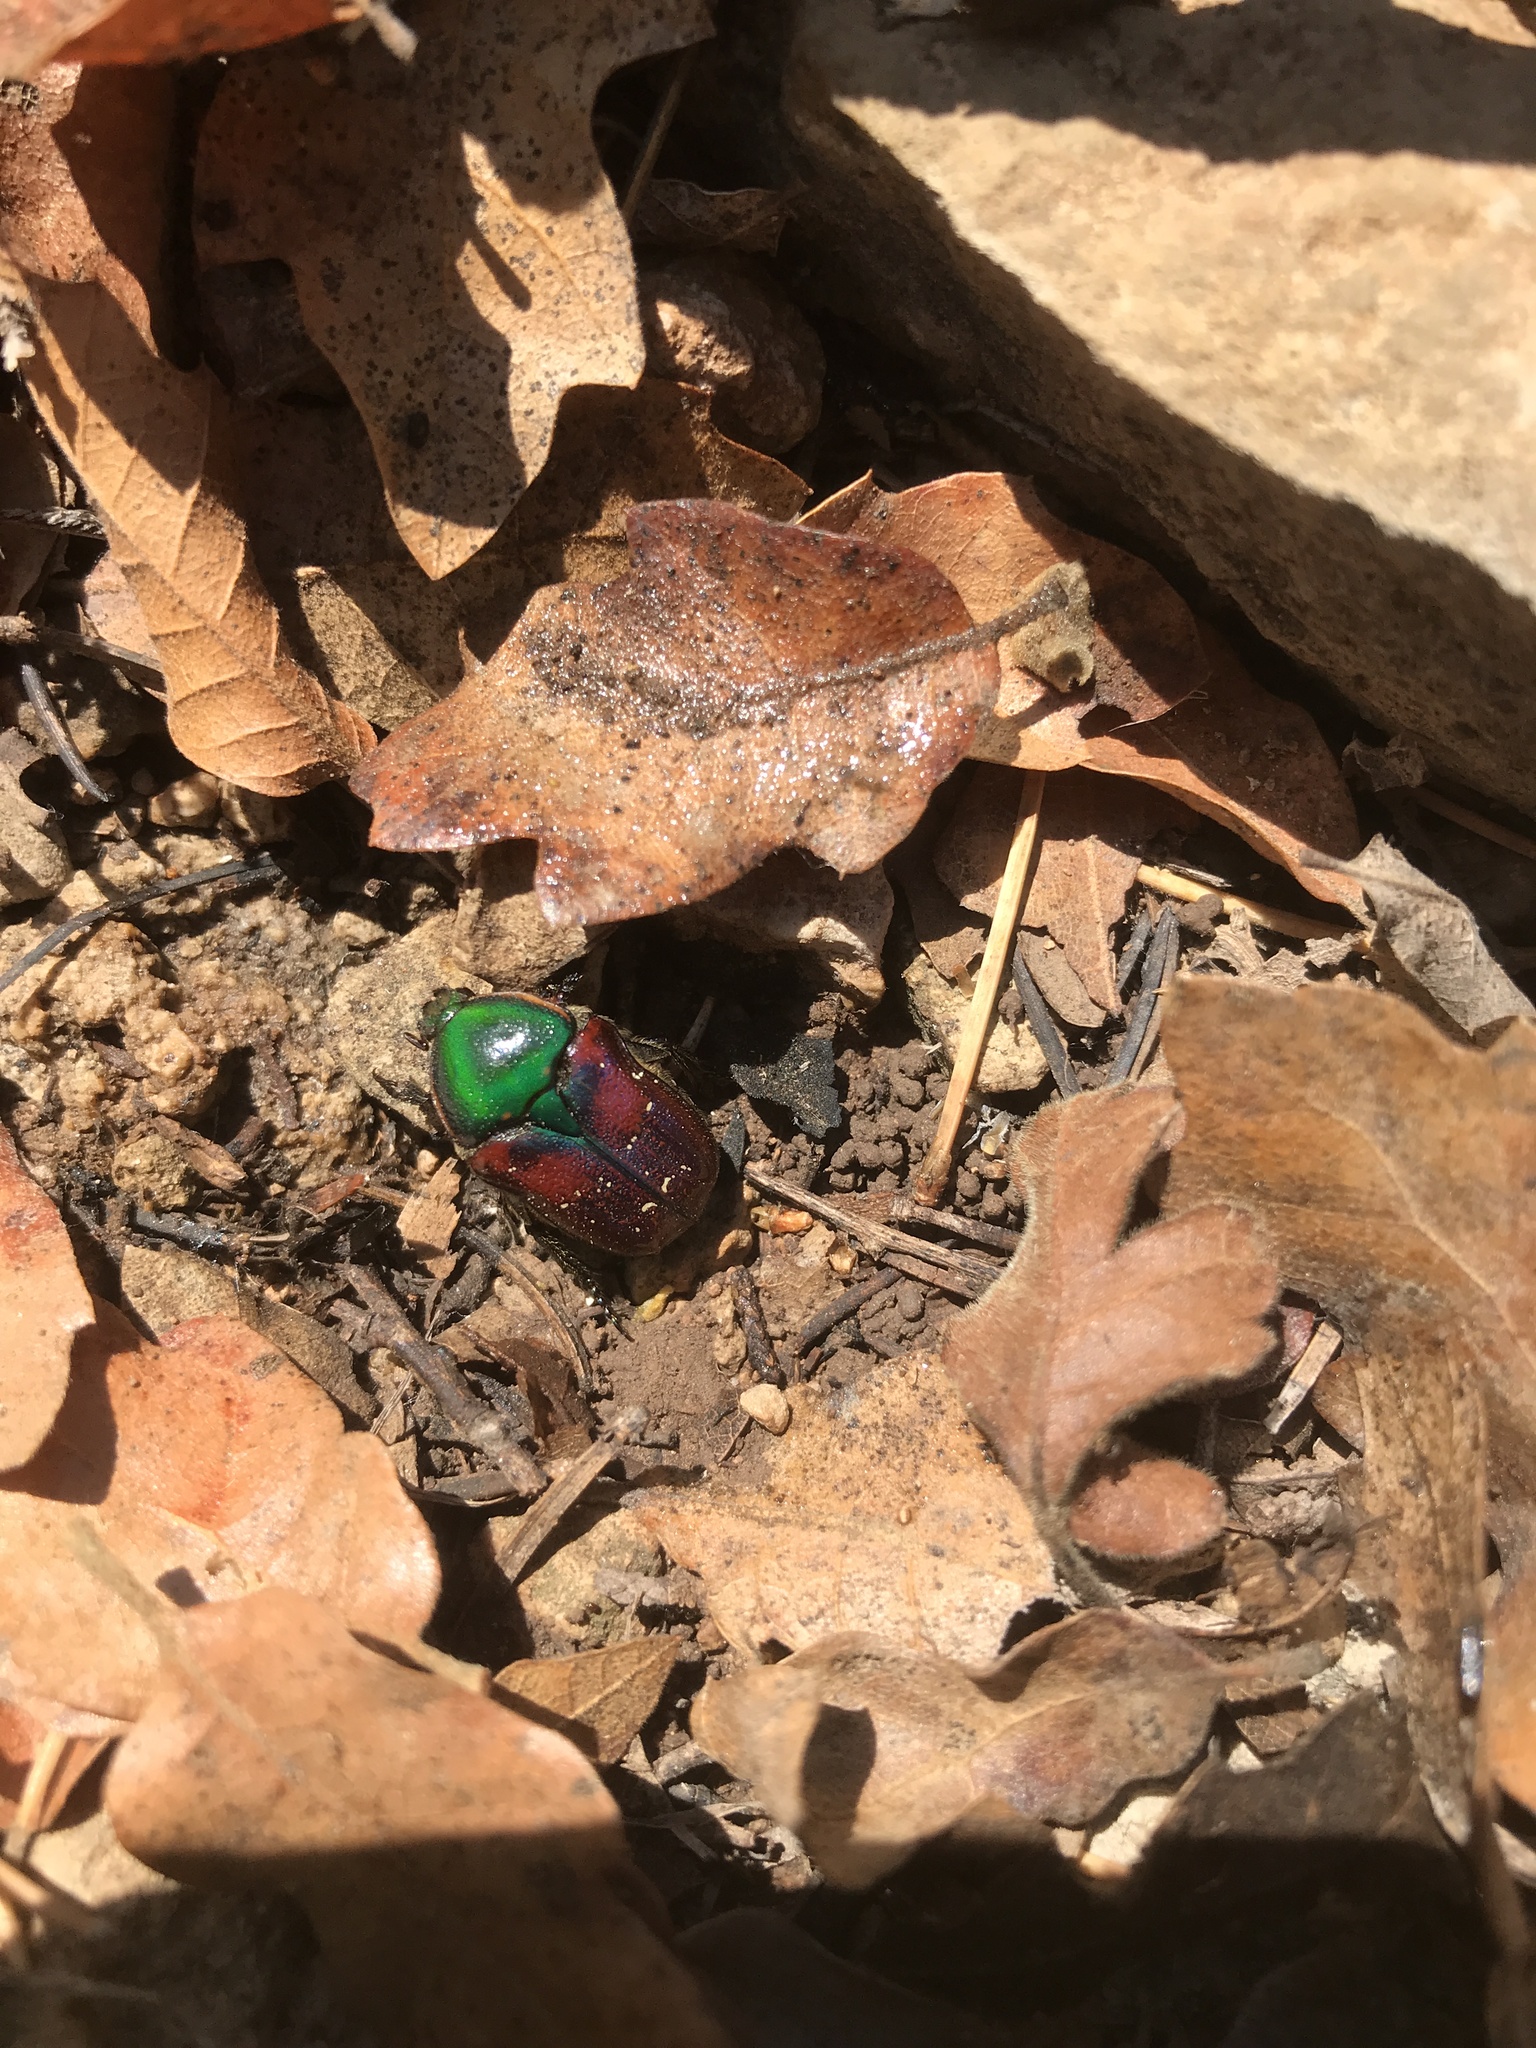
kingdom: Animalia
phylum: Arthropoda
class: Insecta
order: Coleoptera
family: Scarabaeidae
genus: Euphoria
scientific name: Euphoria fulgida
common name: Emerald euphoria
